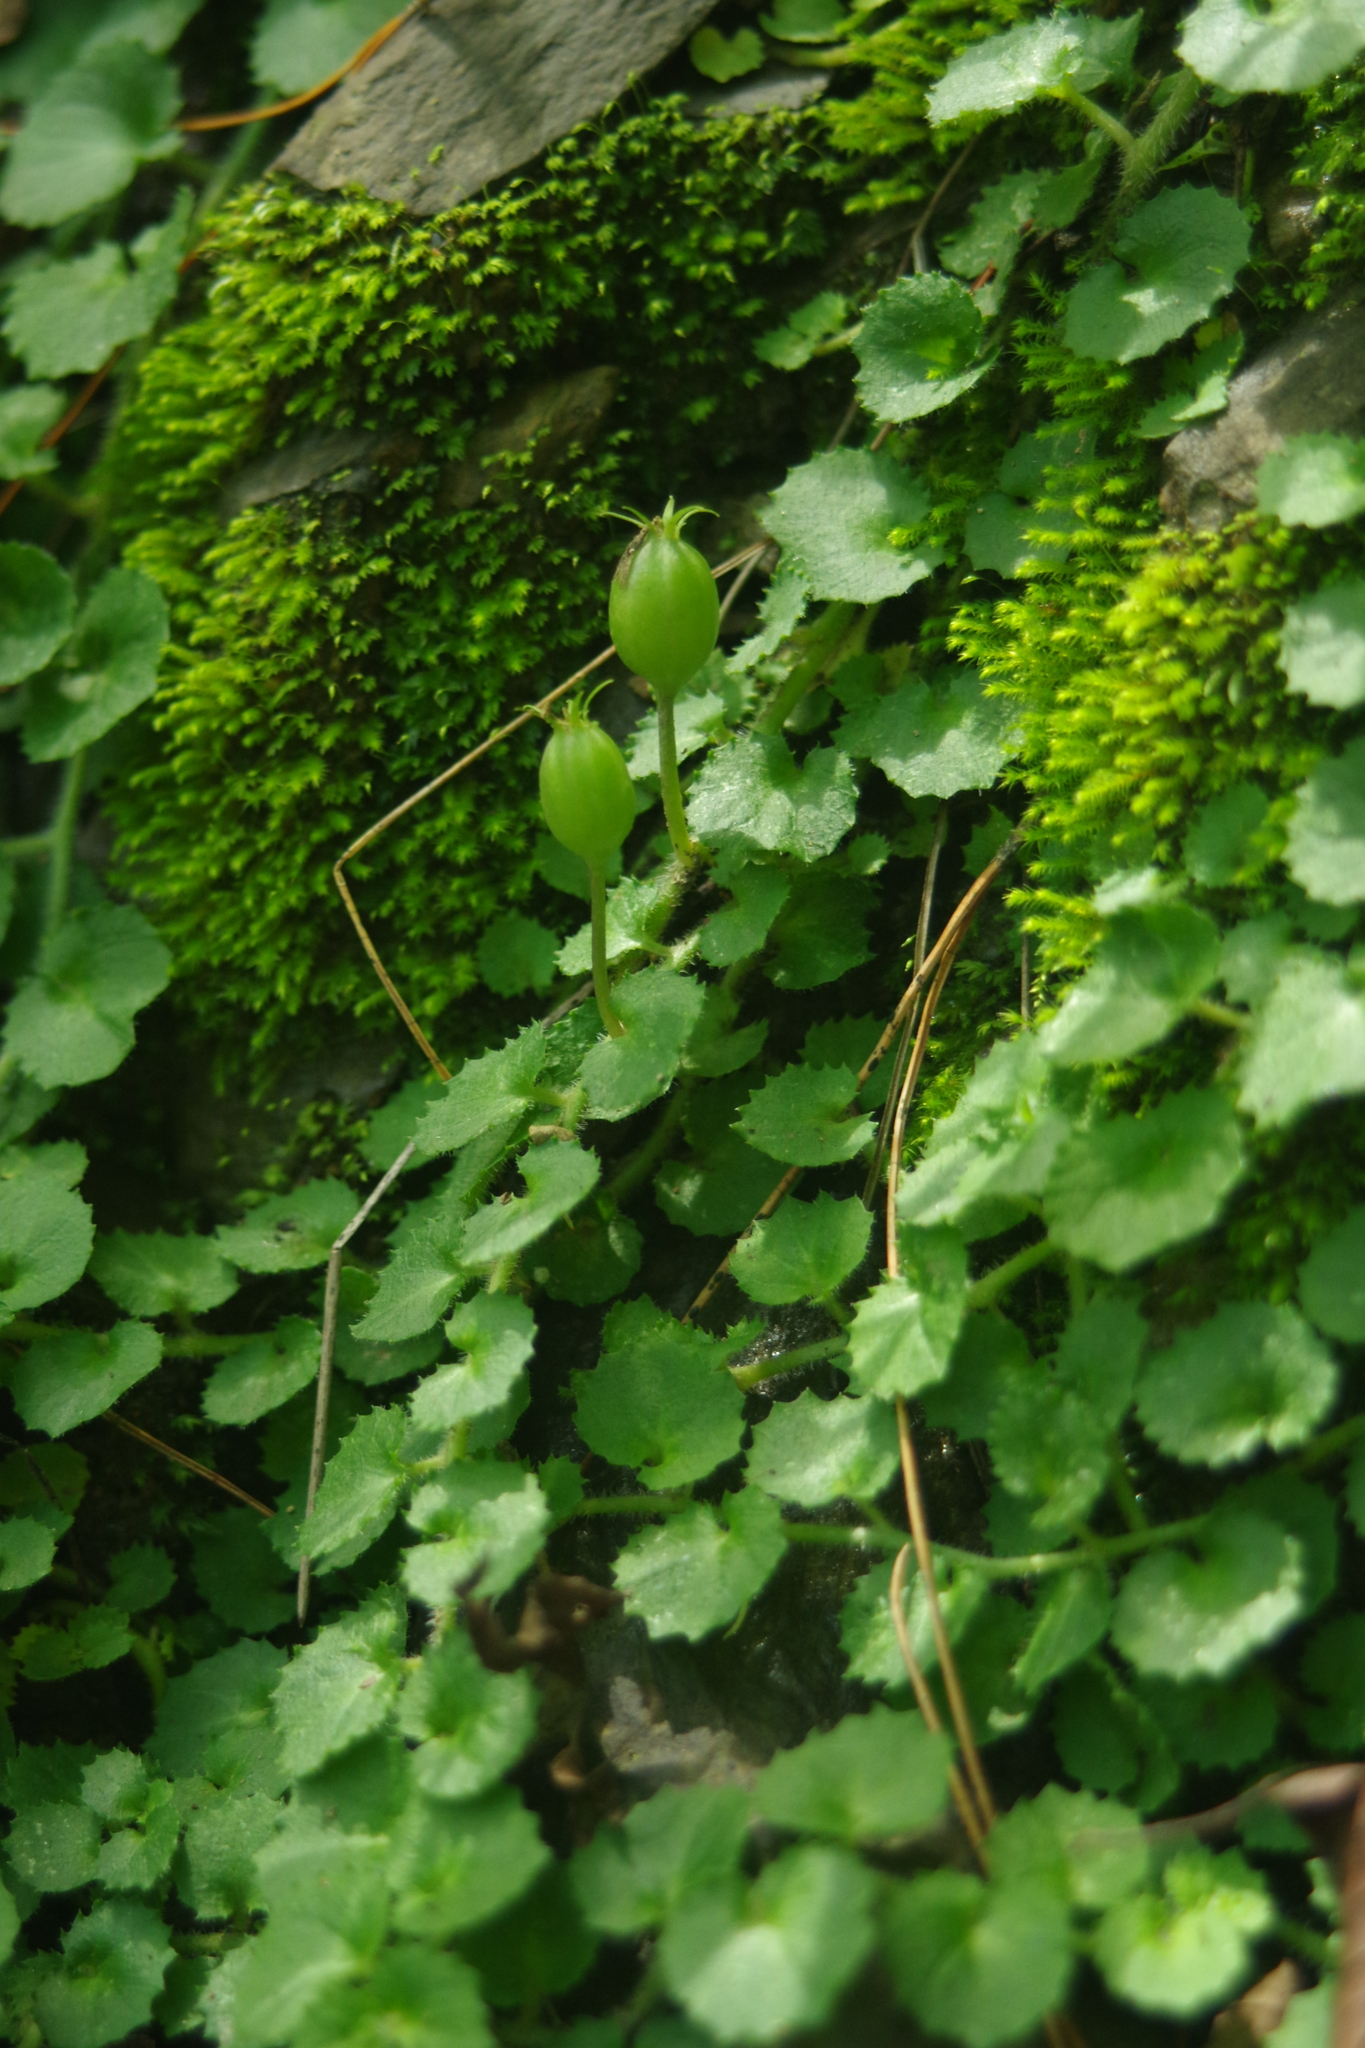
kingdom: Plantae
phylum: Tracheophyta
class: Magnoliopsida
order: Asterales
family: Campanulaceae
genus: Lobelia
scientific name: Lobelia nummularia
